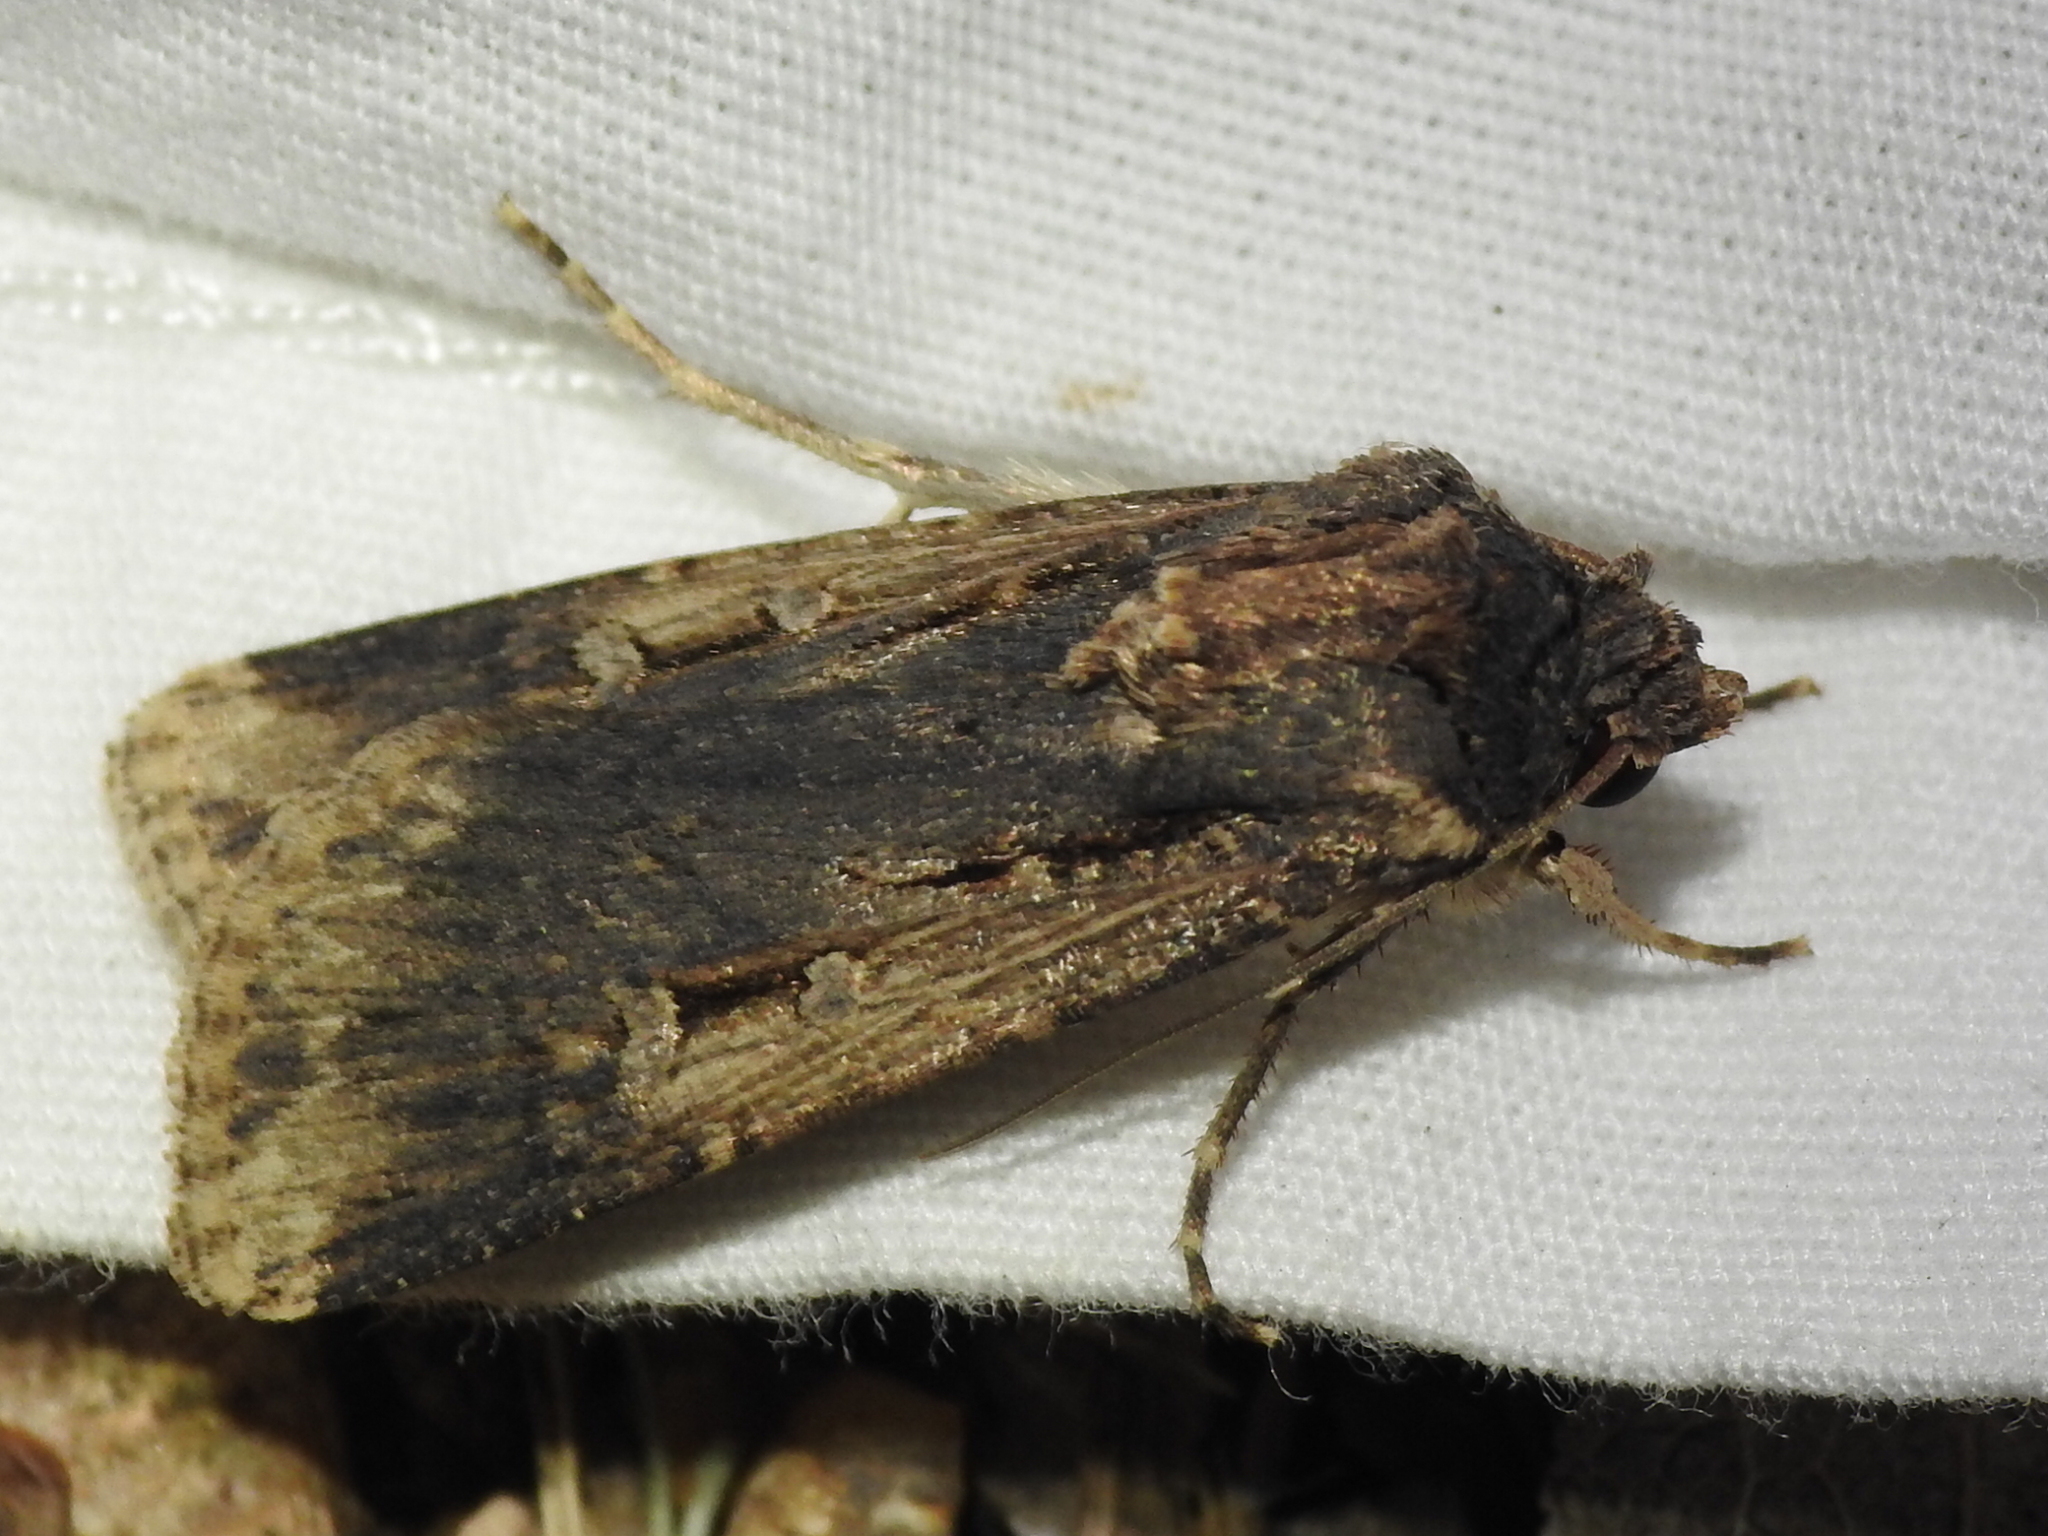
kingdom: Animalia
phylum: Arthropoda
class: Insecta
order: Lepidoptera
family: Noctuidae
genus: Feltia
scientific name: Feltia subterranea
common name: Granulate cutworm
